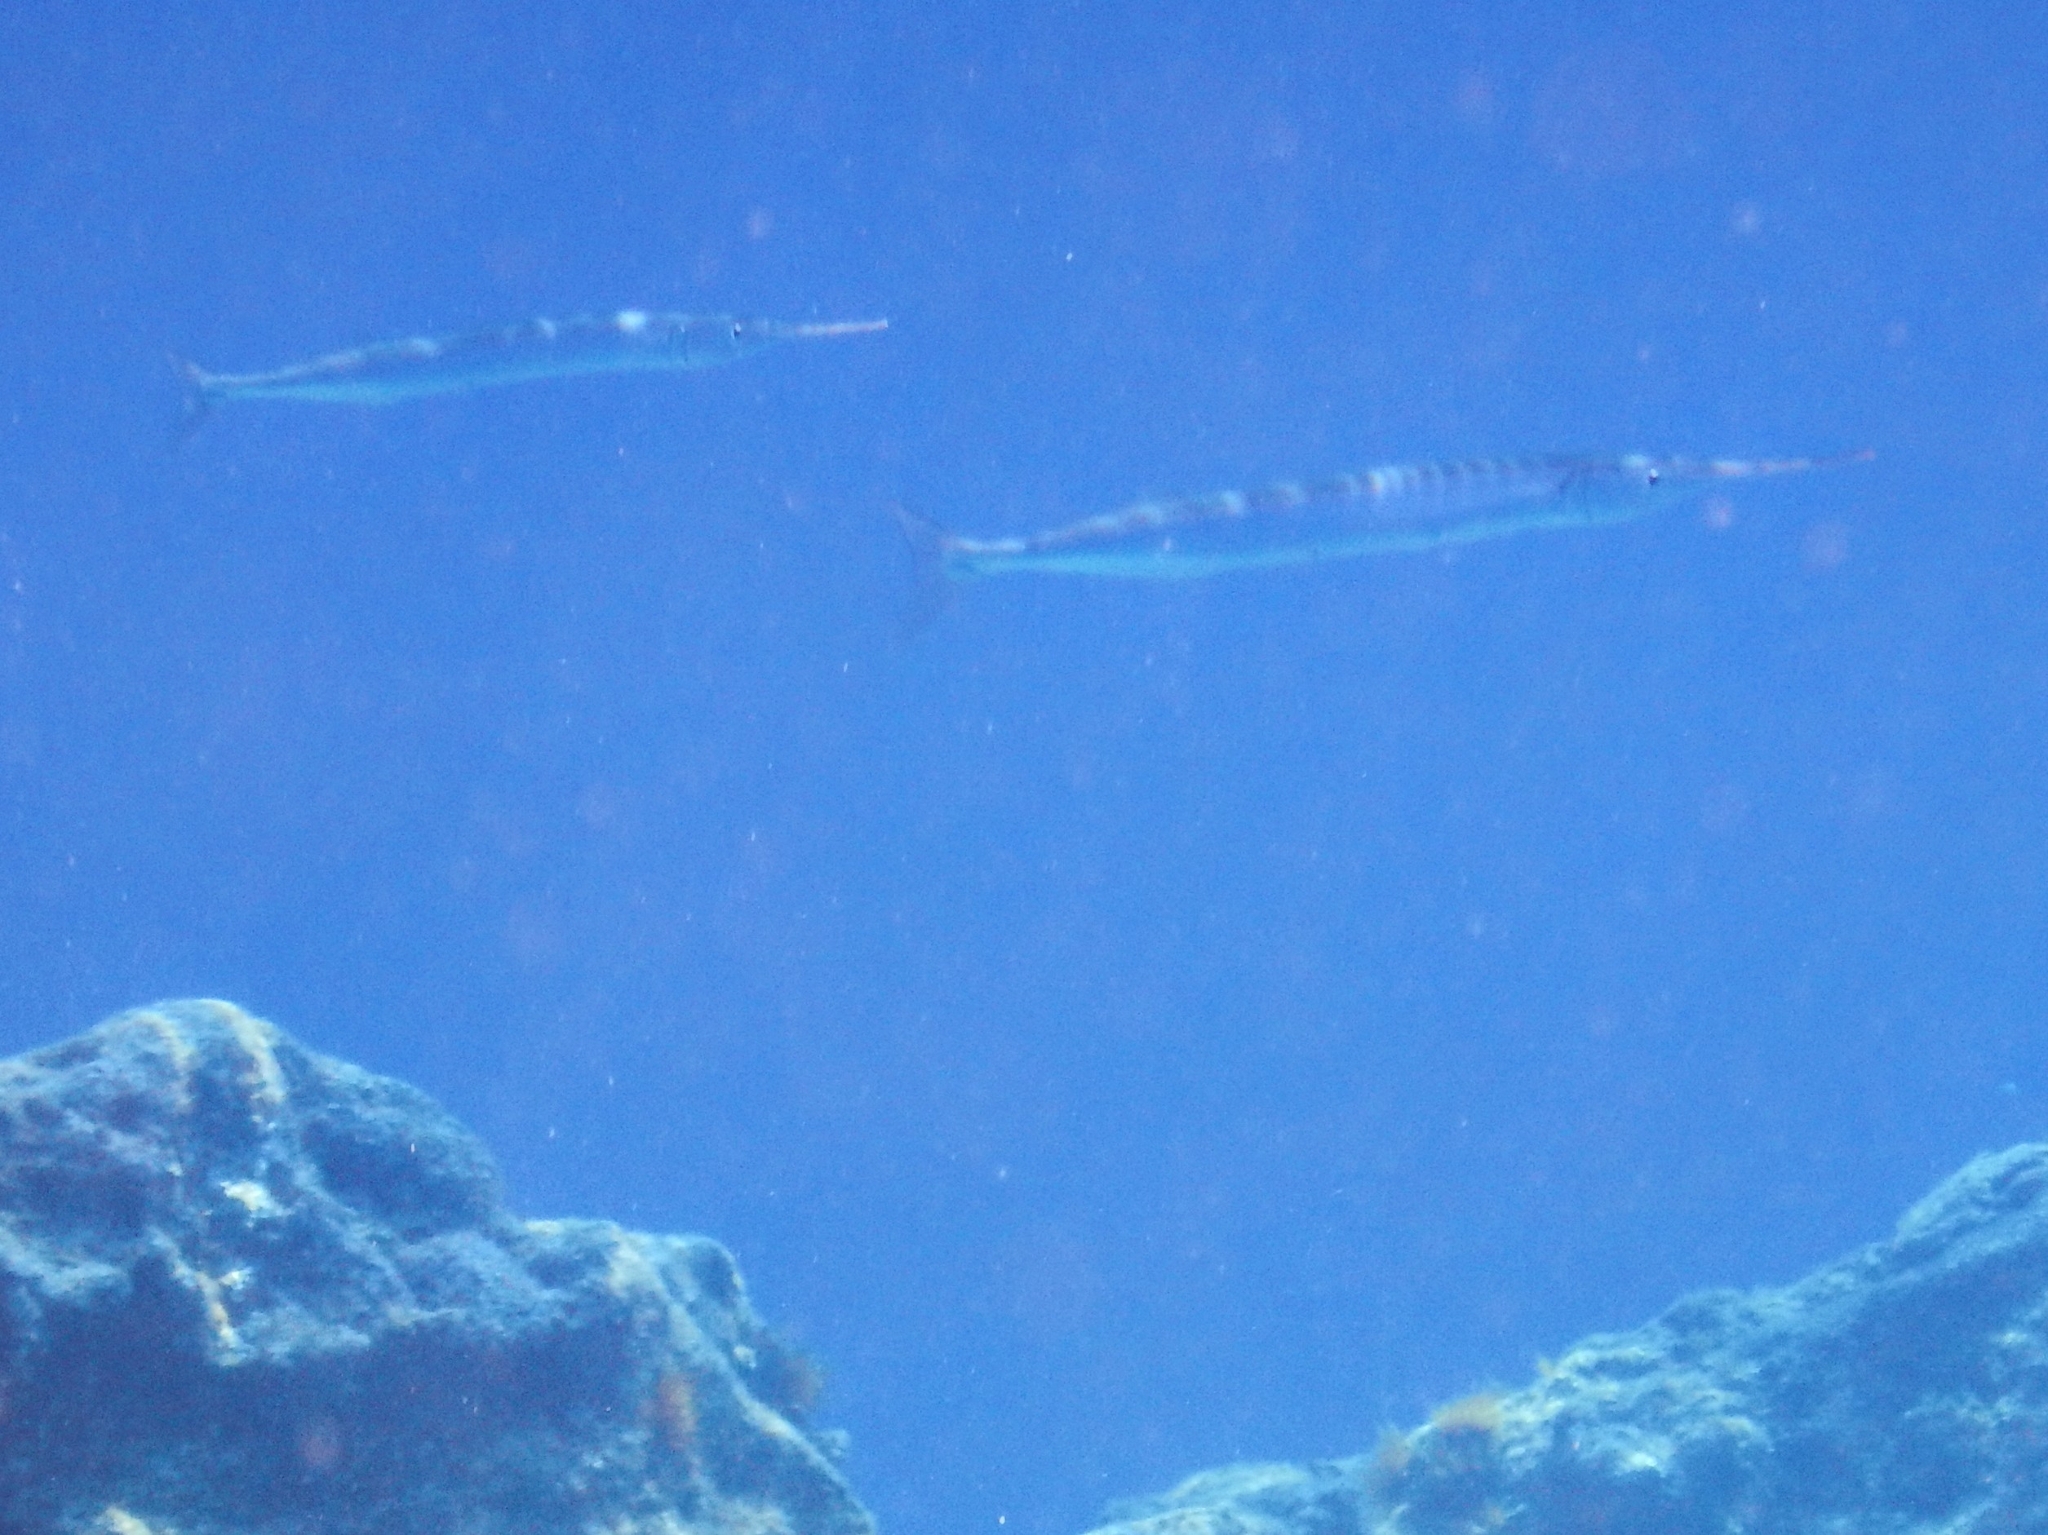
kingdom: Animalia
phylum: Chordata
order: Beloniformes
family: Belonidae
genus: Belone
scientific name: Belone
